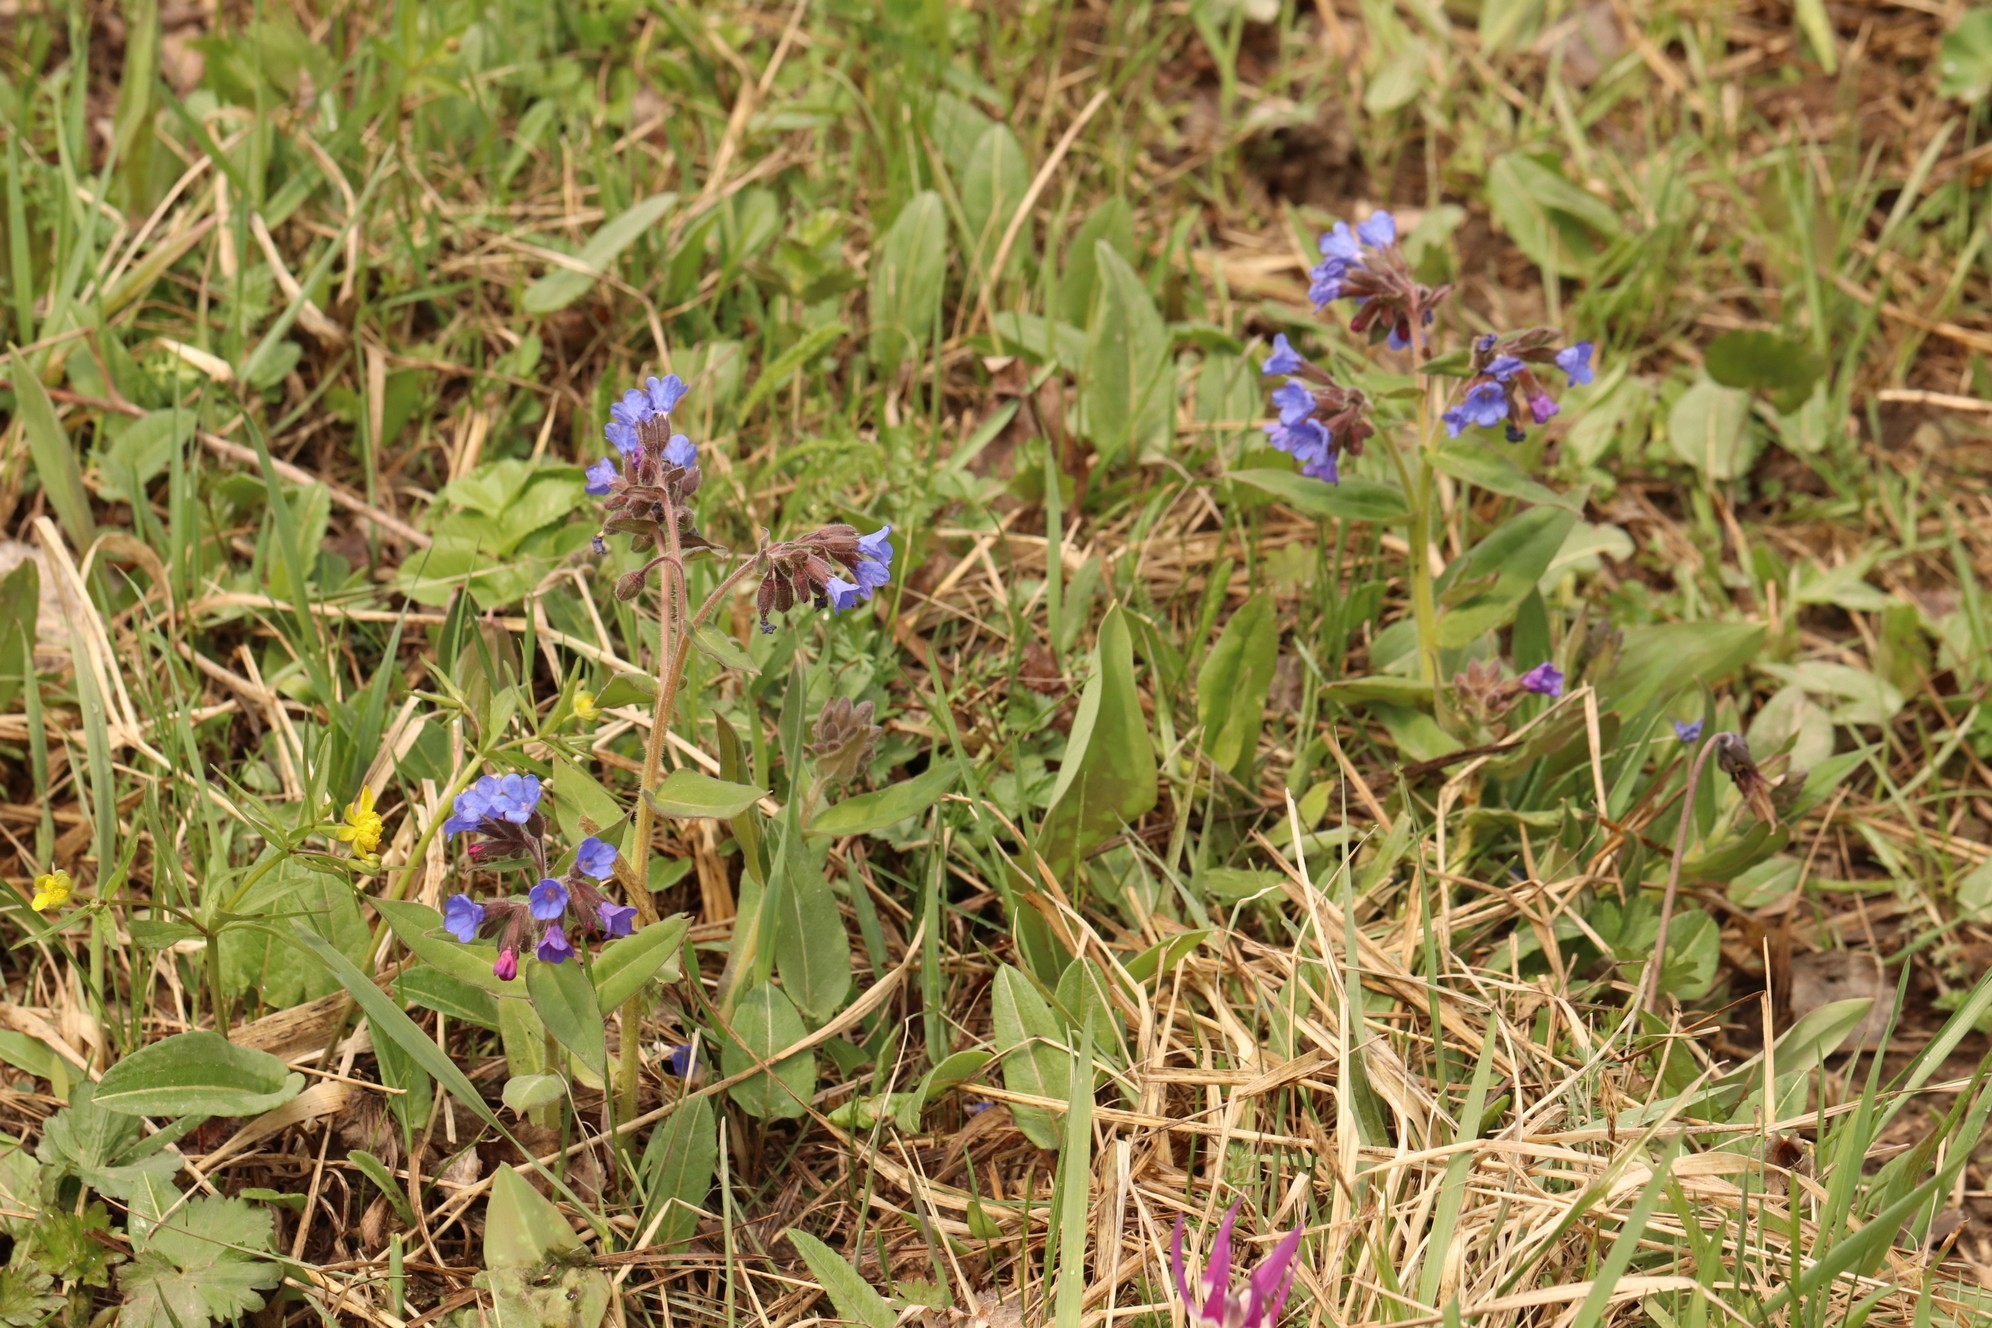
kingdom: Plantae
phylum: Tracheophyta
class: Magnoliopsida
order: Boraginales
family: Boraginaceae
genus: Pulmonaria
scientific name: Pulmonaria mollis
